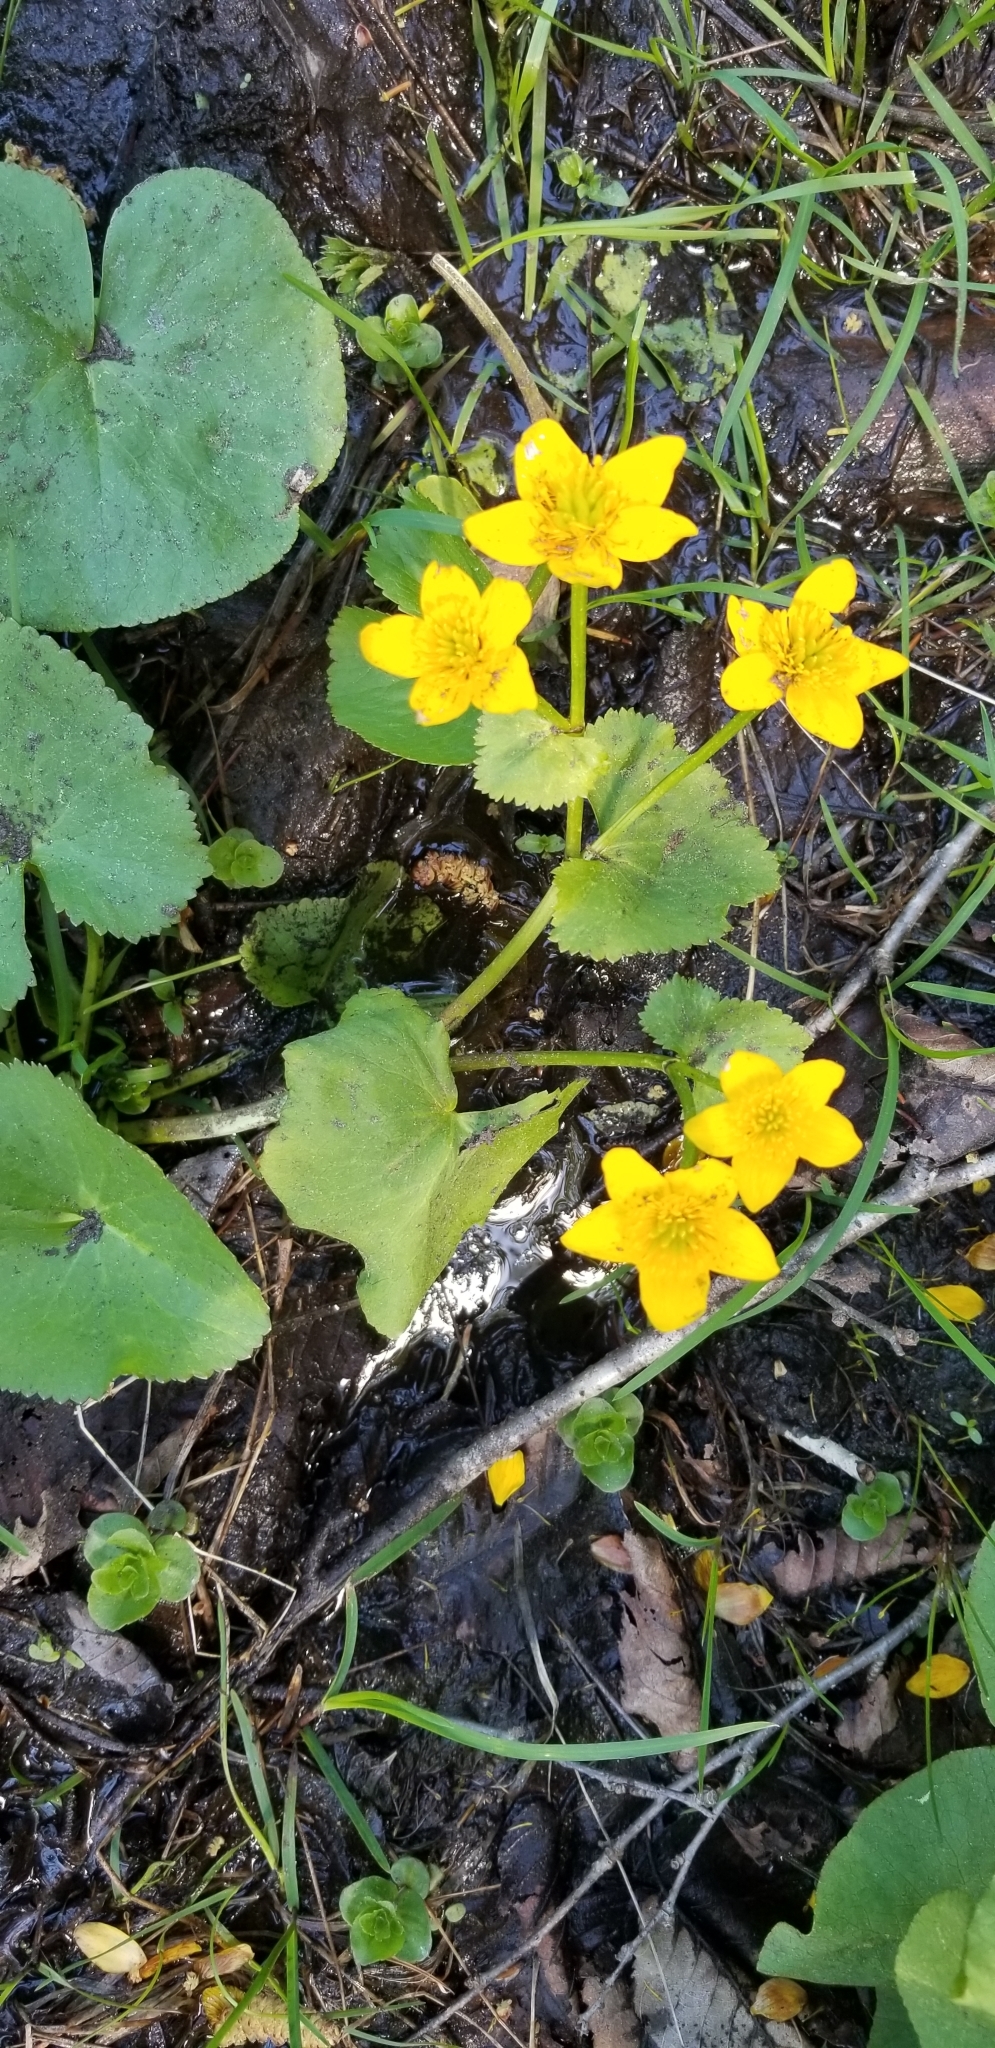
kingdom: Plantae
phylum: Tracheophyta
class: Magnoliopsida
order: Ranunculales
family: Ranunculaceae
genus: Caltha
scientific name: Caltha palustris
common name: Marsh marigold
